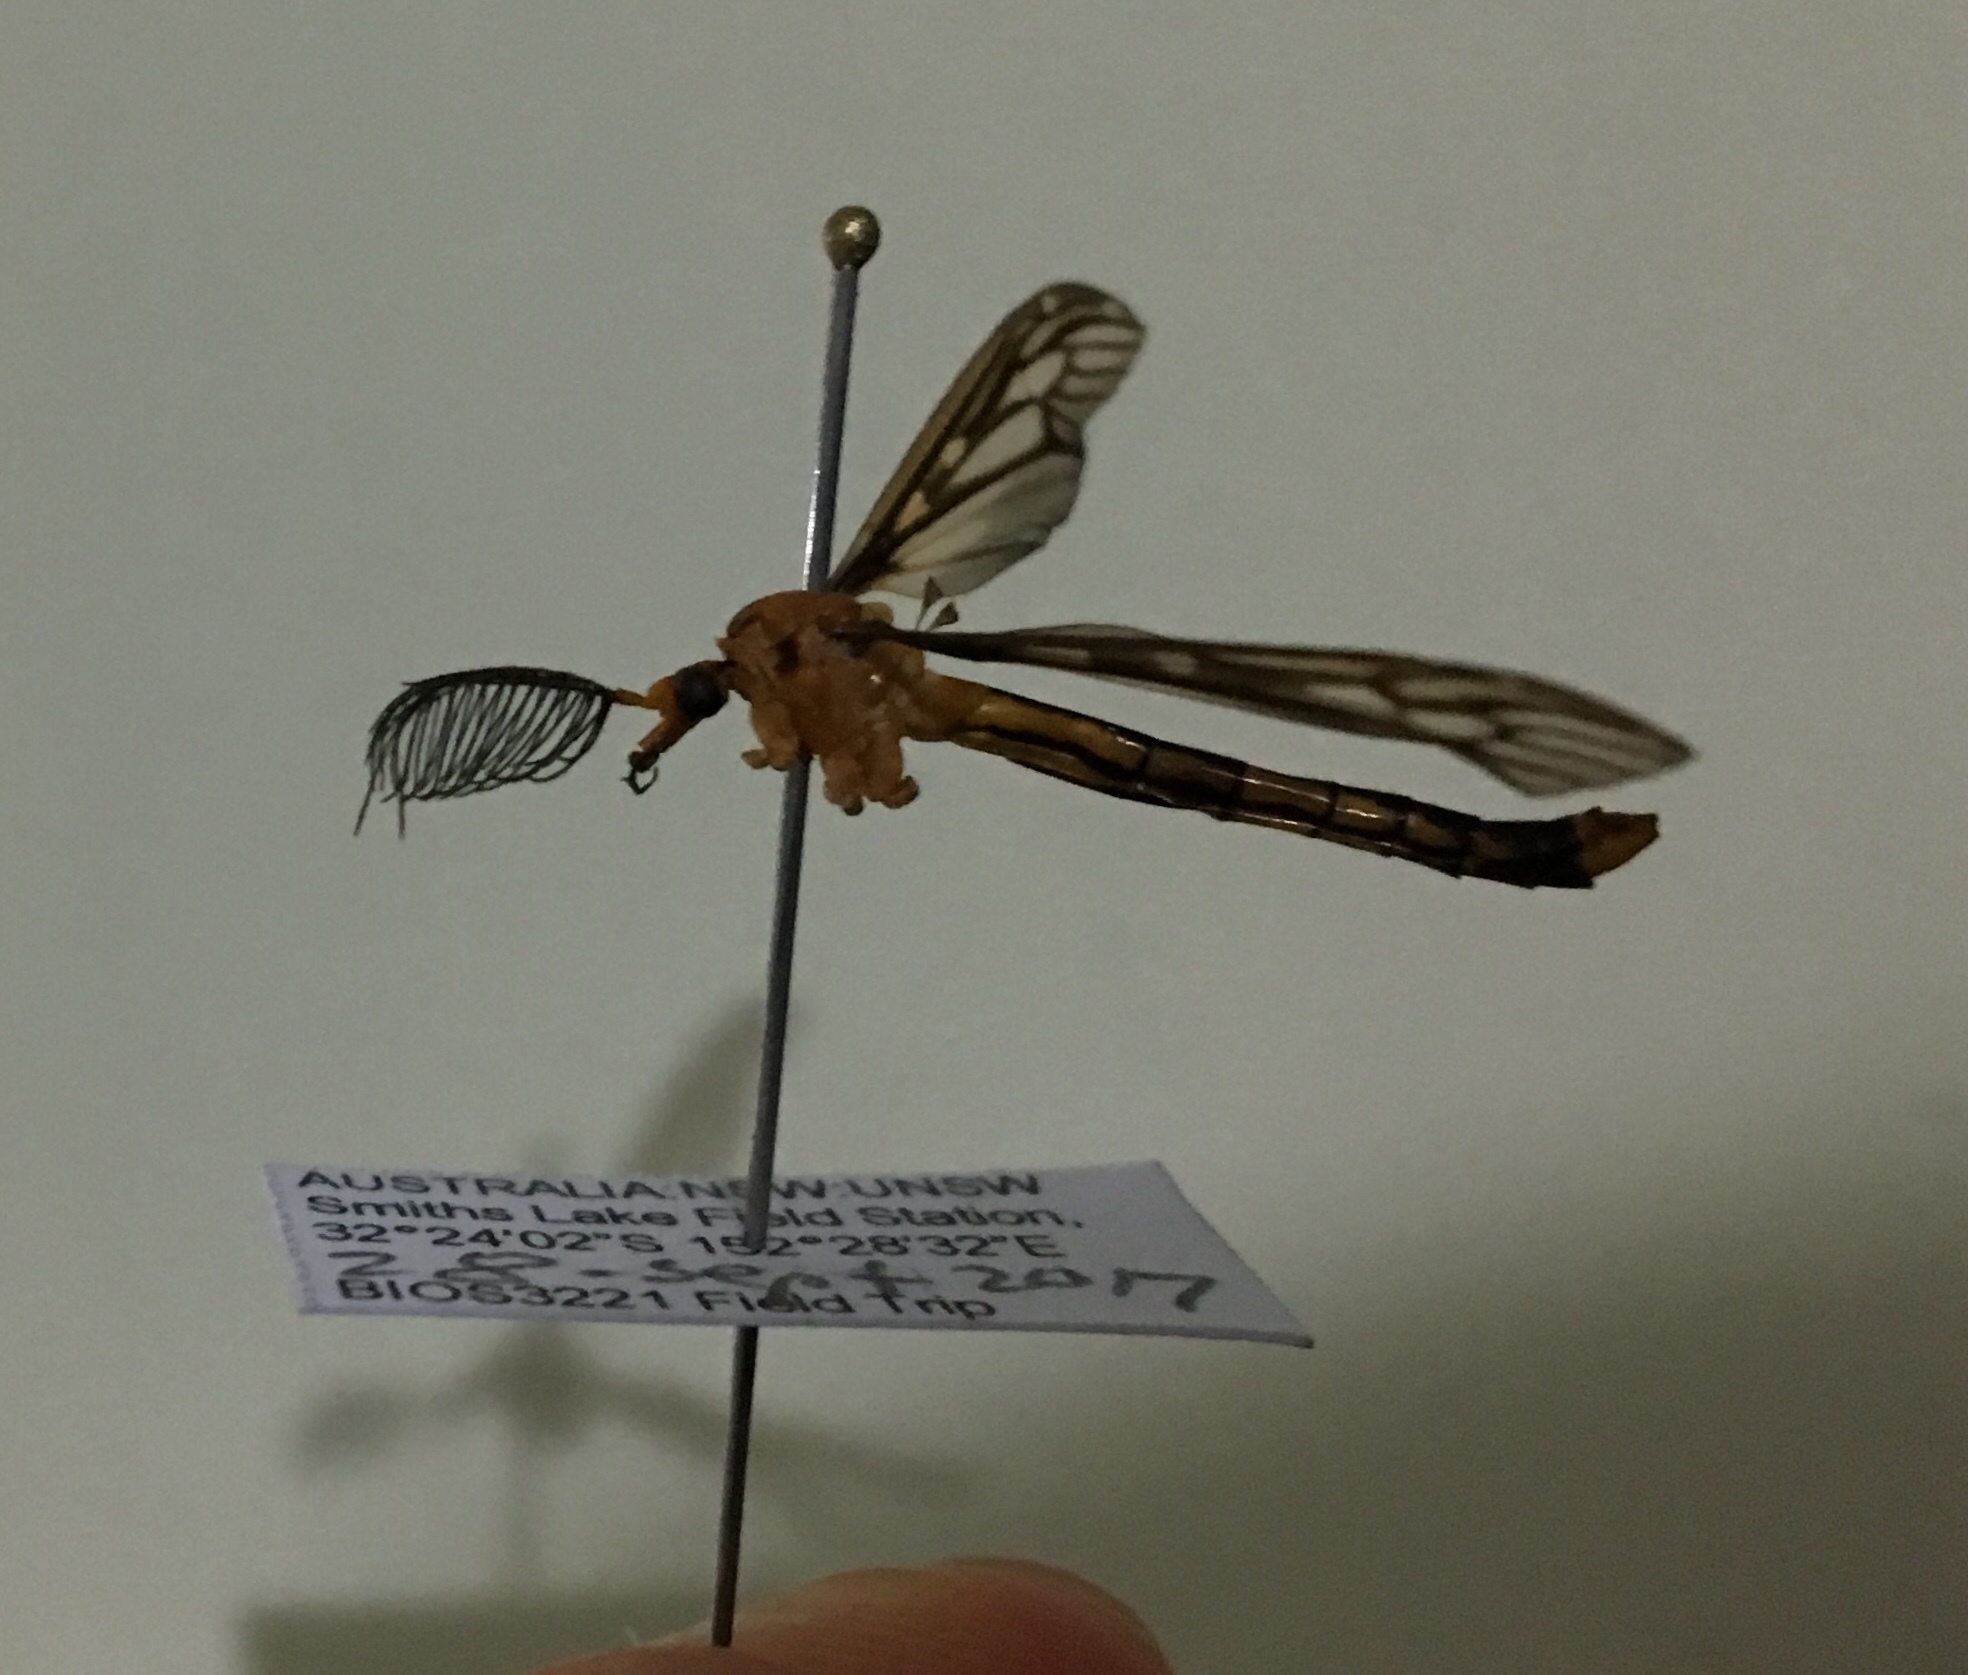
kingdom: Animalia
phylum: Arthropoda
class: Insecta
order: Diptera
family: Tipulidae
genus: Ptilogyna
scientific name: Ptilogyna ramicornis
